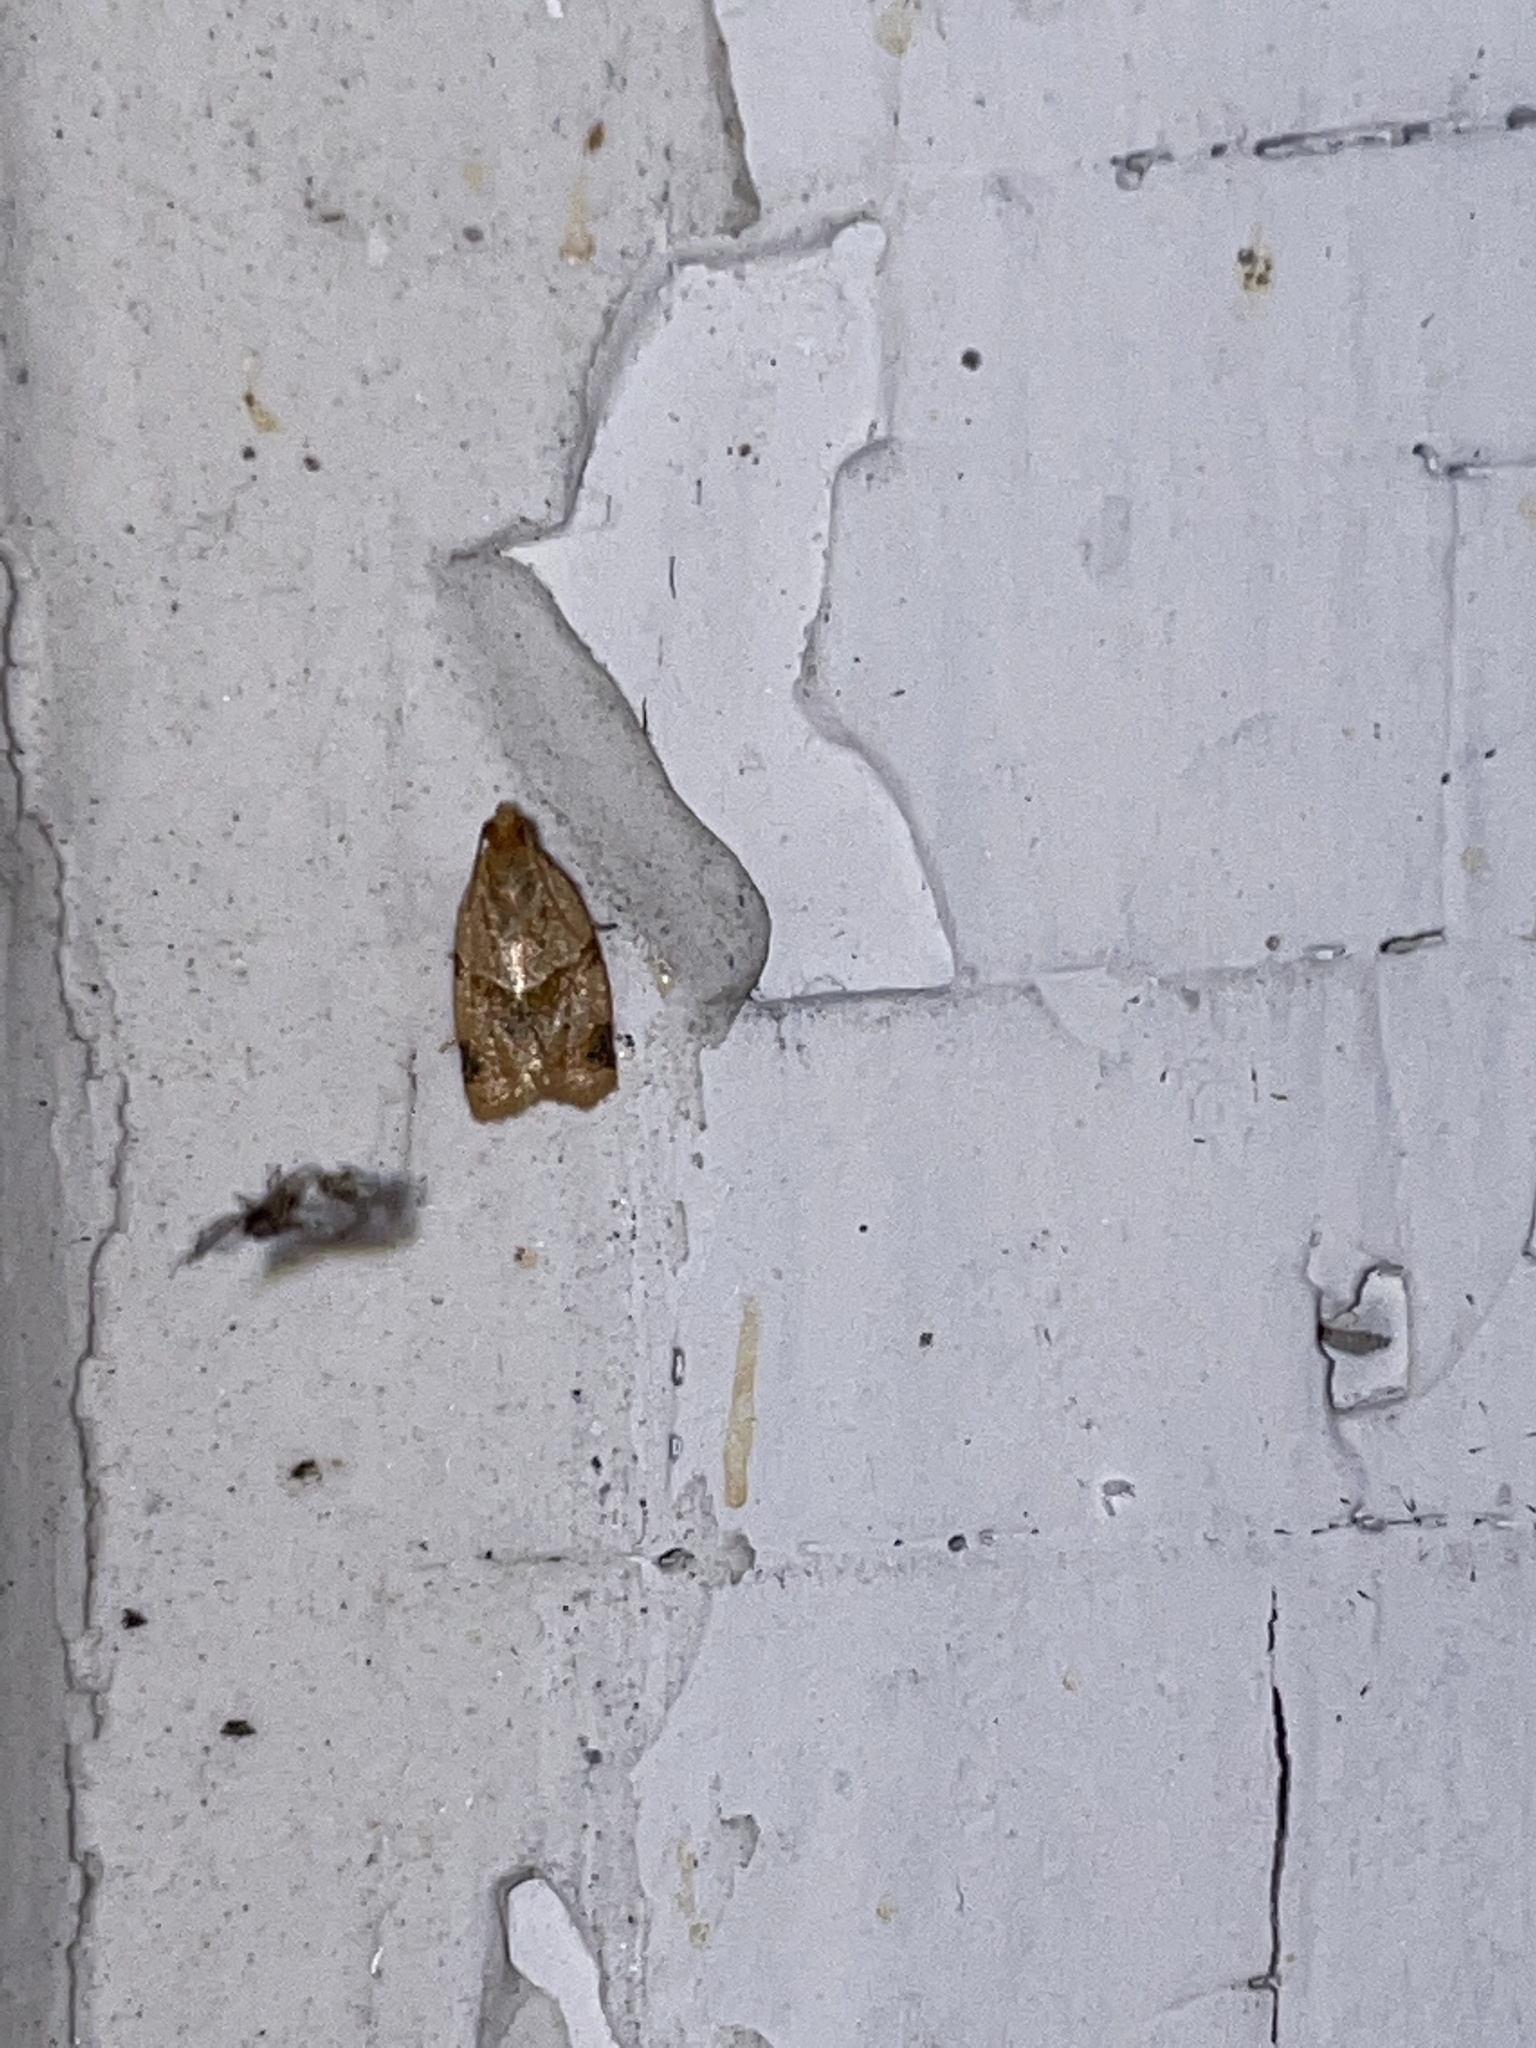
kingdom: Animalia
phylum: Arthropoda
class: Insecta
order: Lepidoptera
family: Tortricidae
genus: Clepsis
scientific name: Clepsis peritana
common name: Garden tortrix
